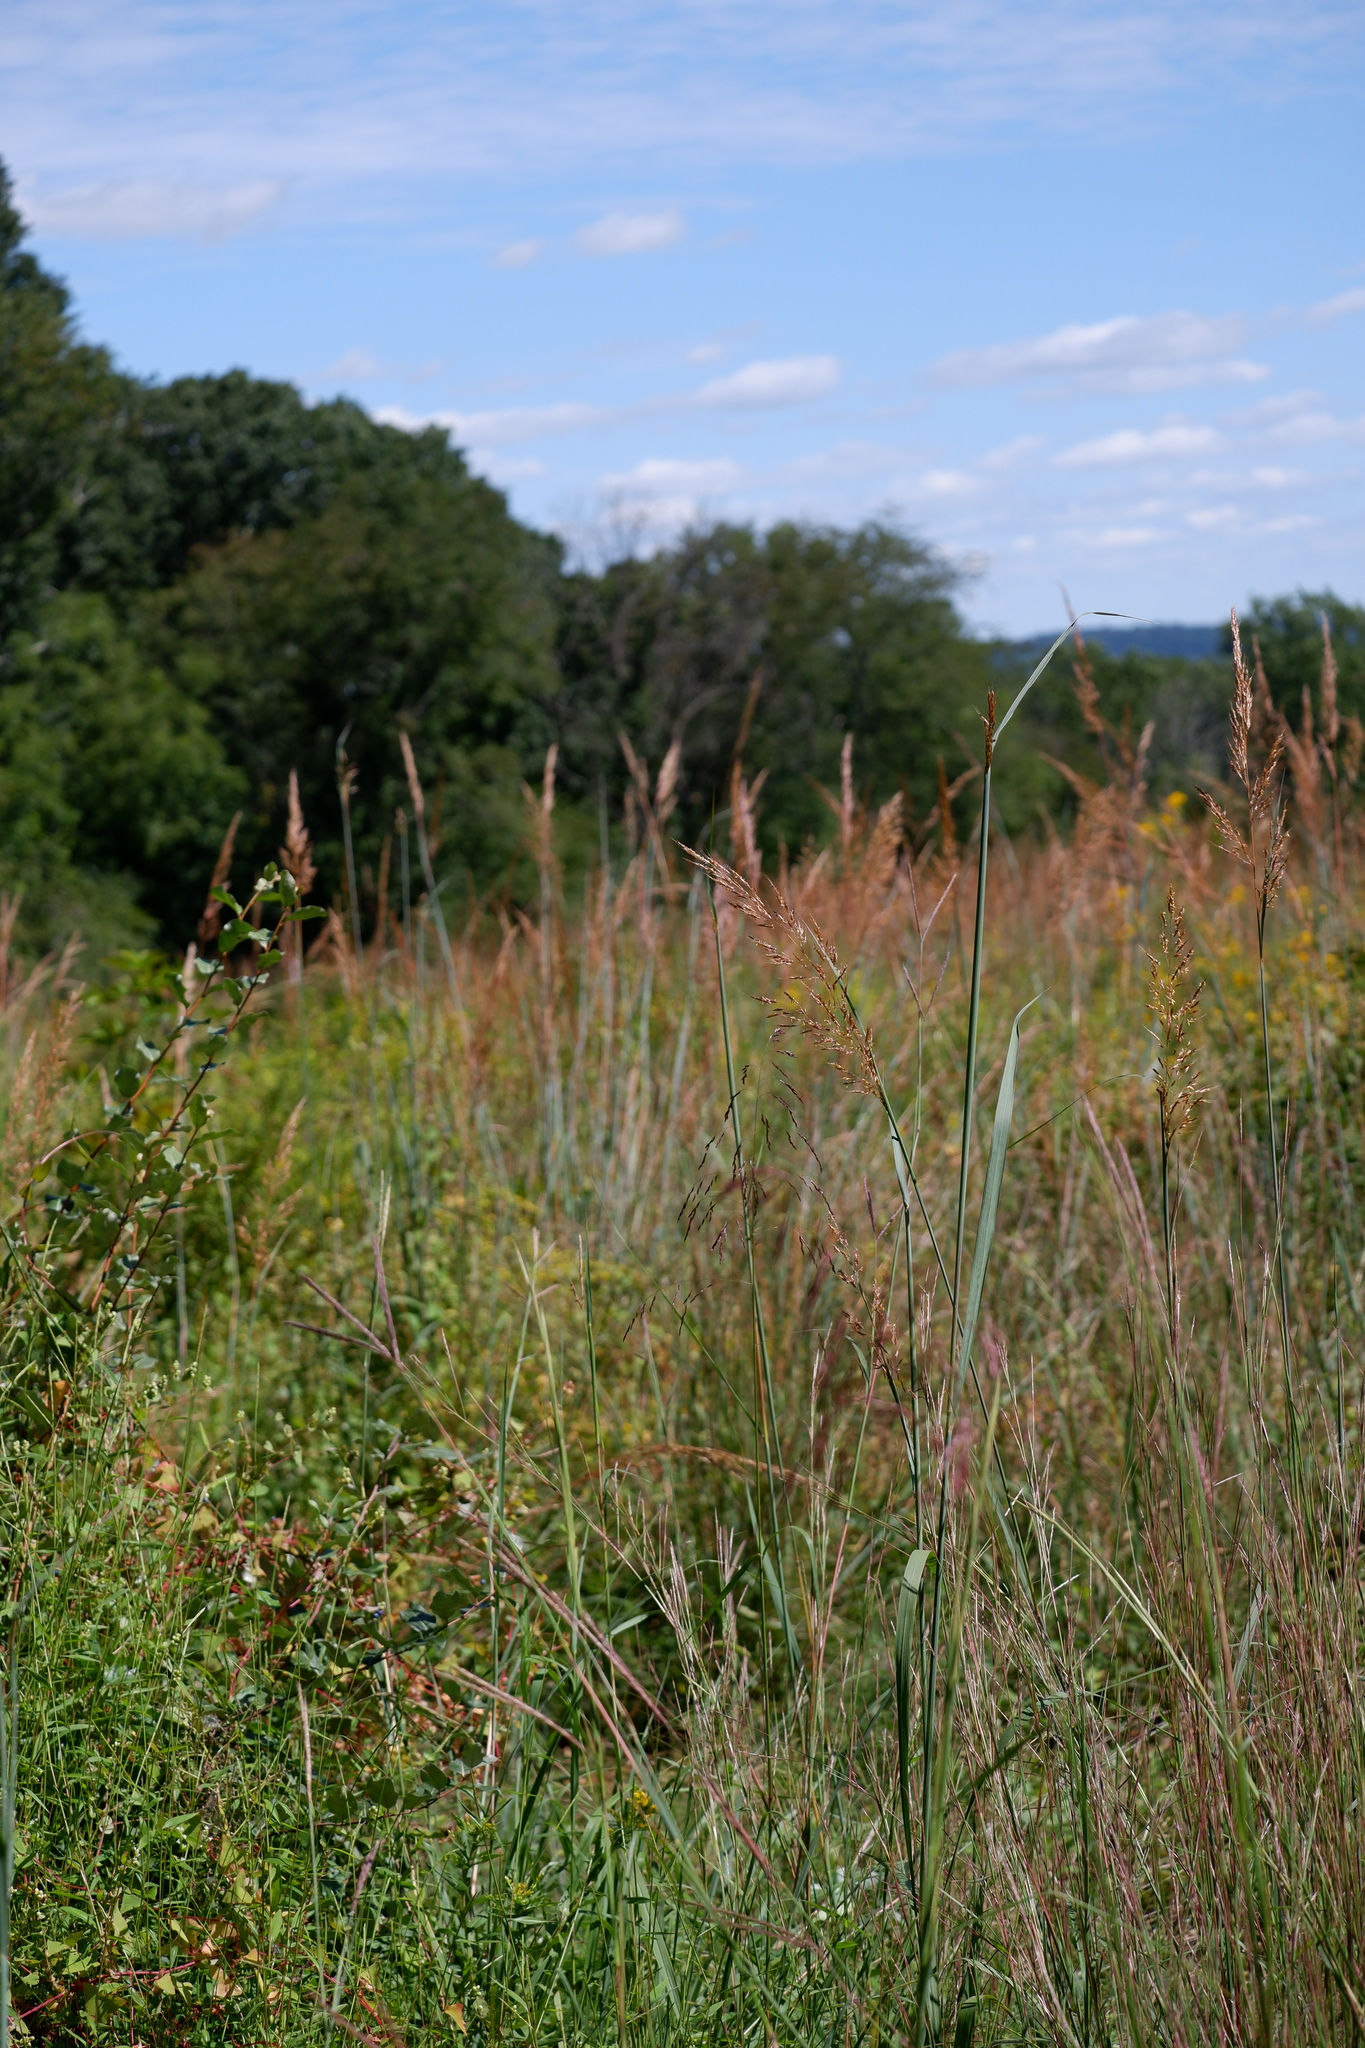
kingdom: Plantae
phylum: Tracheophyta
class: Liliopsida
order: Poales
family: Poaceae
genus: Sorghastrum
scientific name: Sorghastrum nutans
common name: Indian grass
